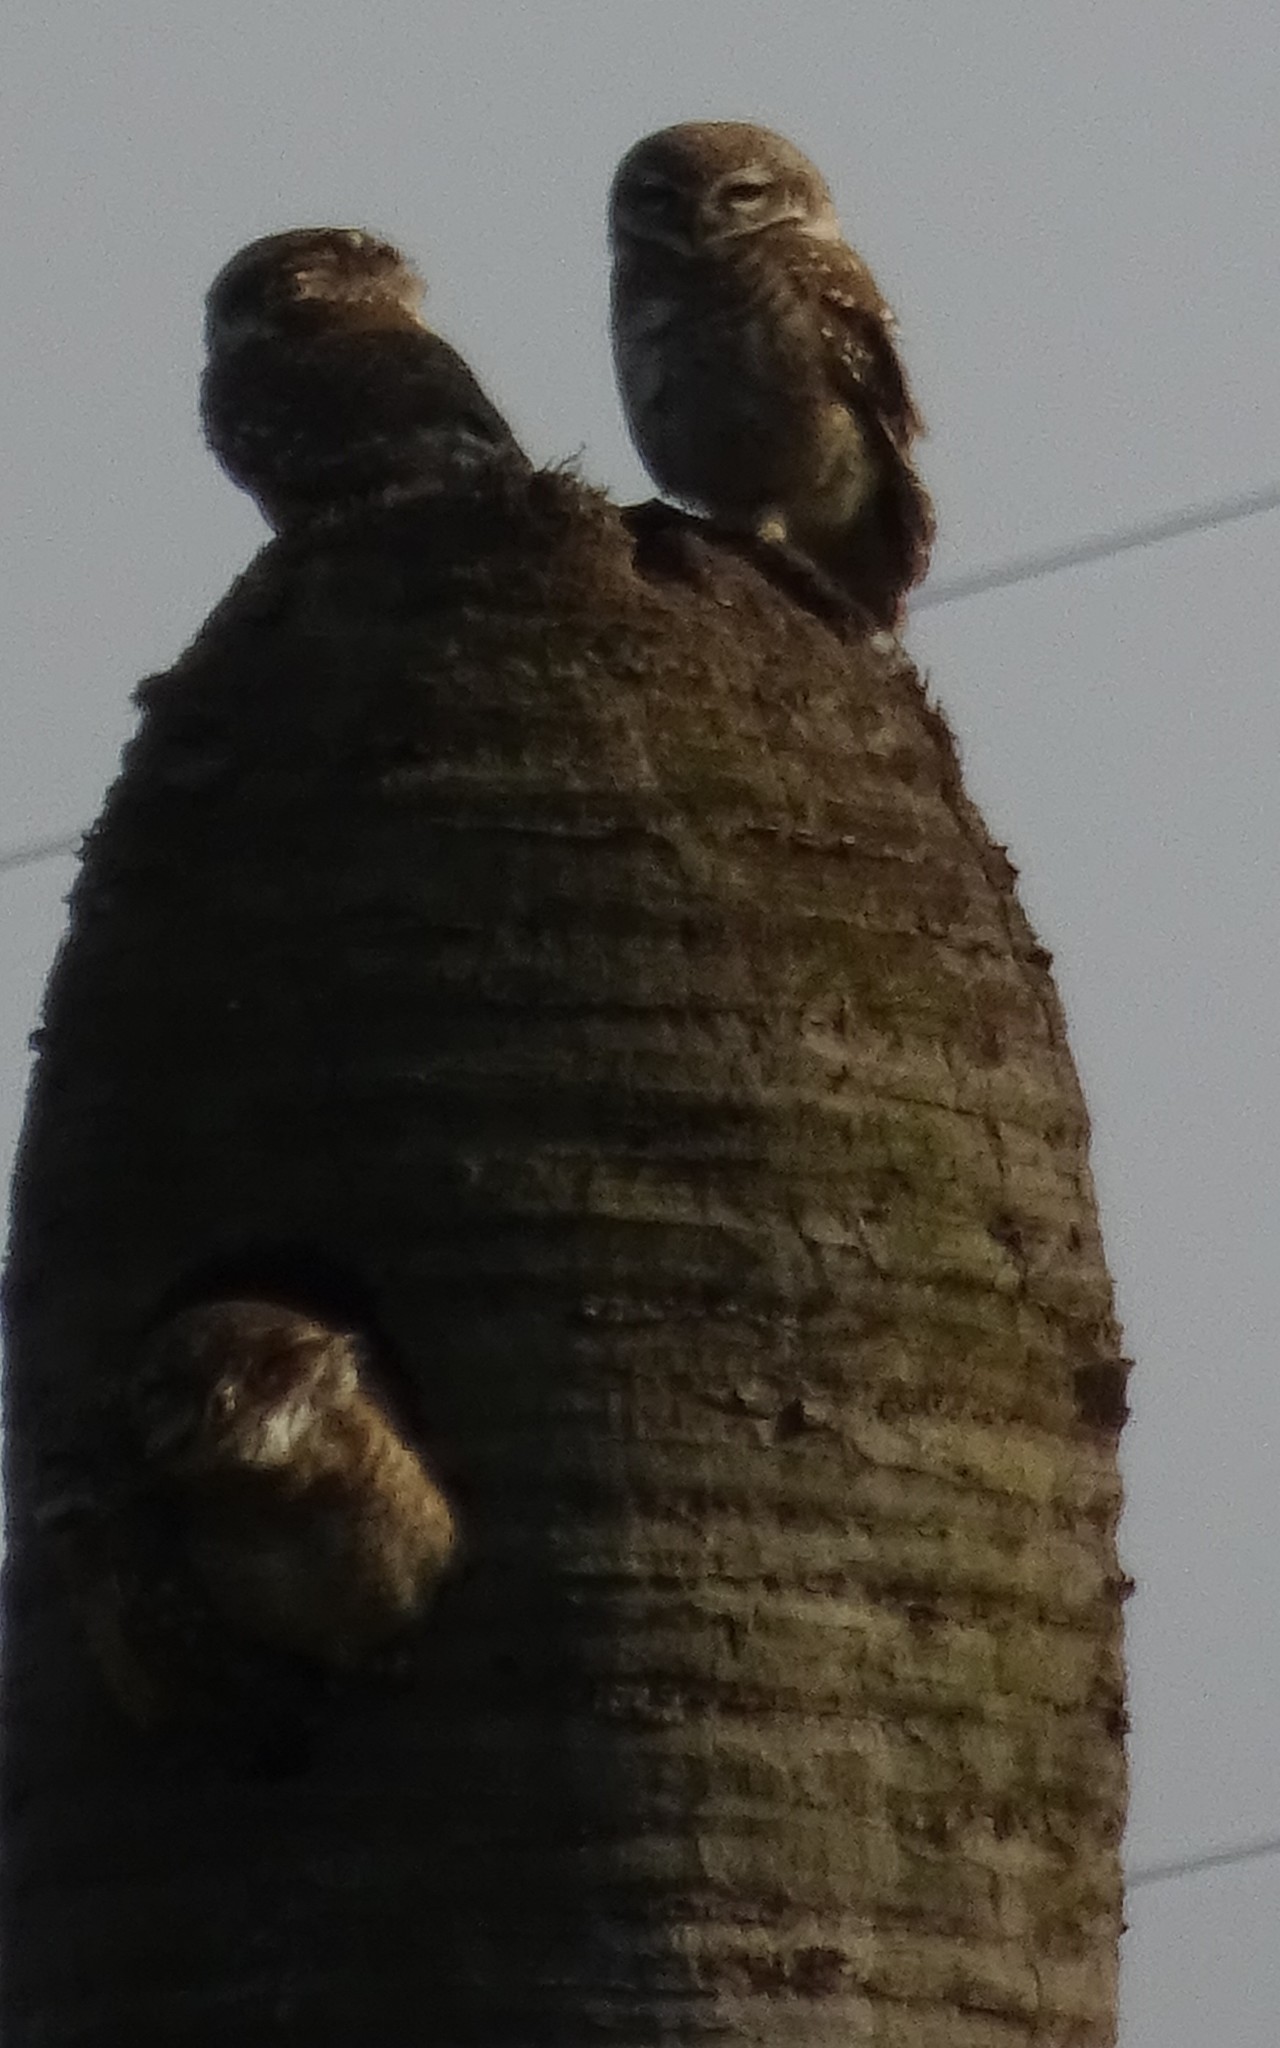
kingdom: Animalia
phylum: Chordata
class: Aves
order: Strigiformes
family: Strigidae
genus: Athene
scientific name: Athene brama
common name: Spotted owlet
